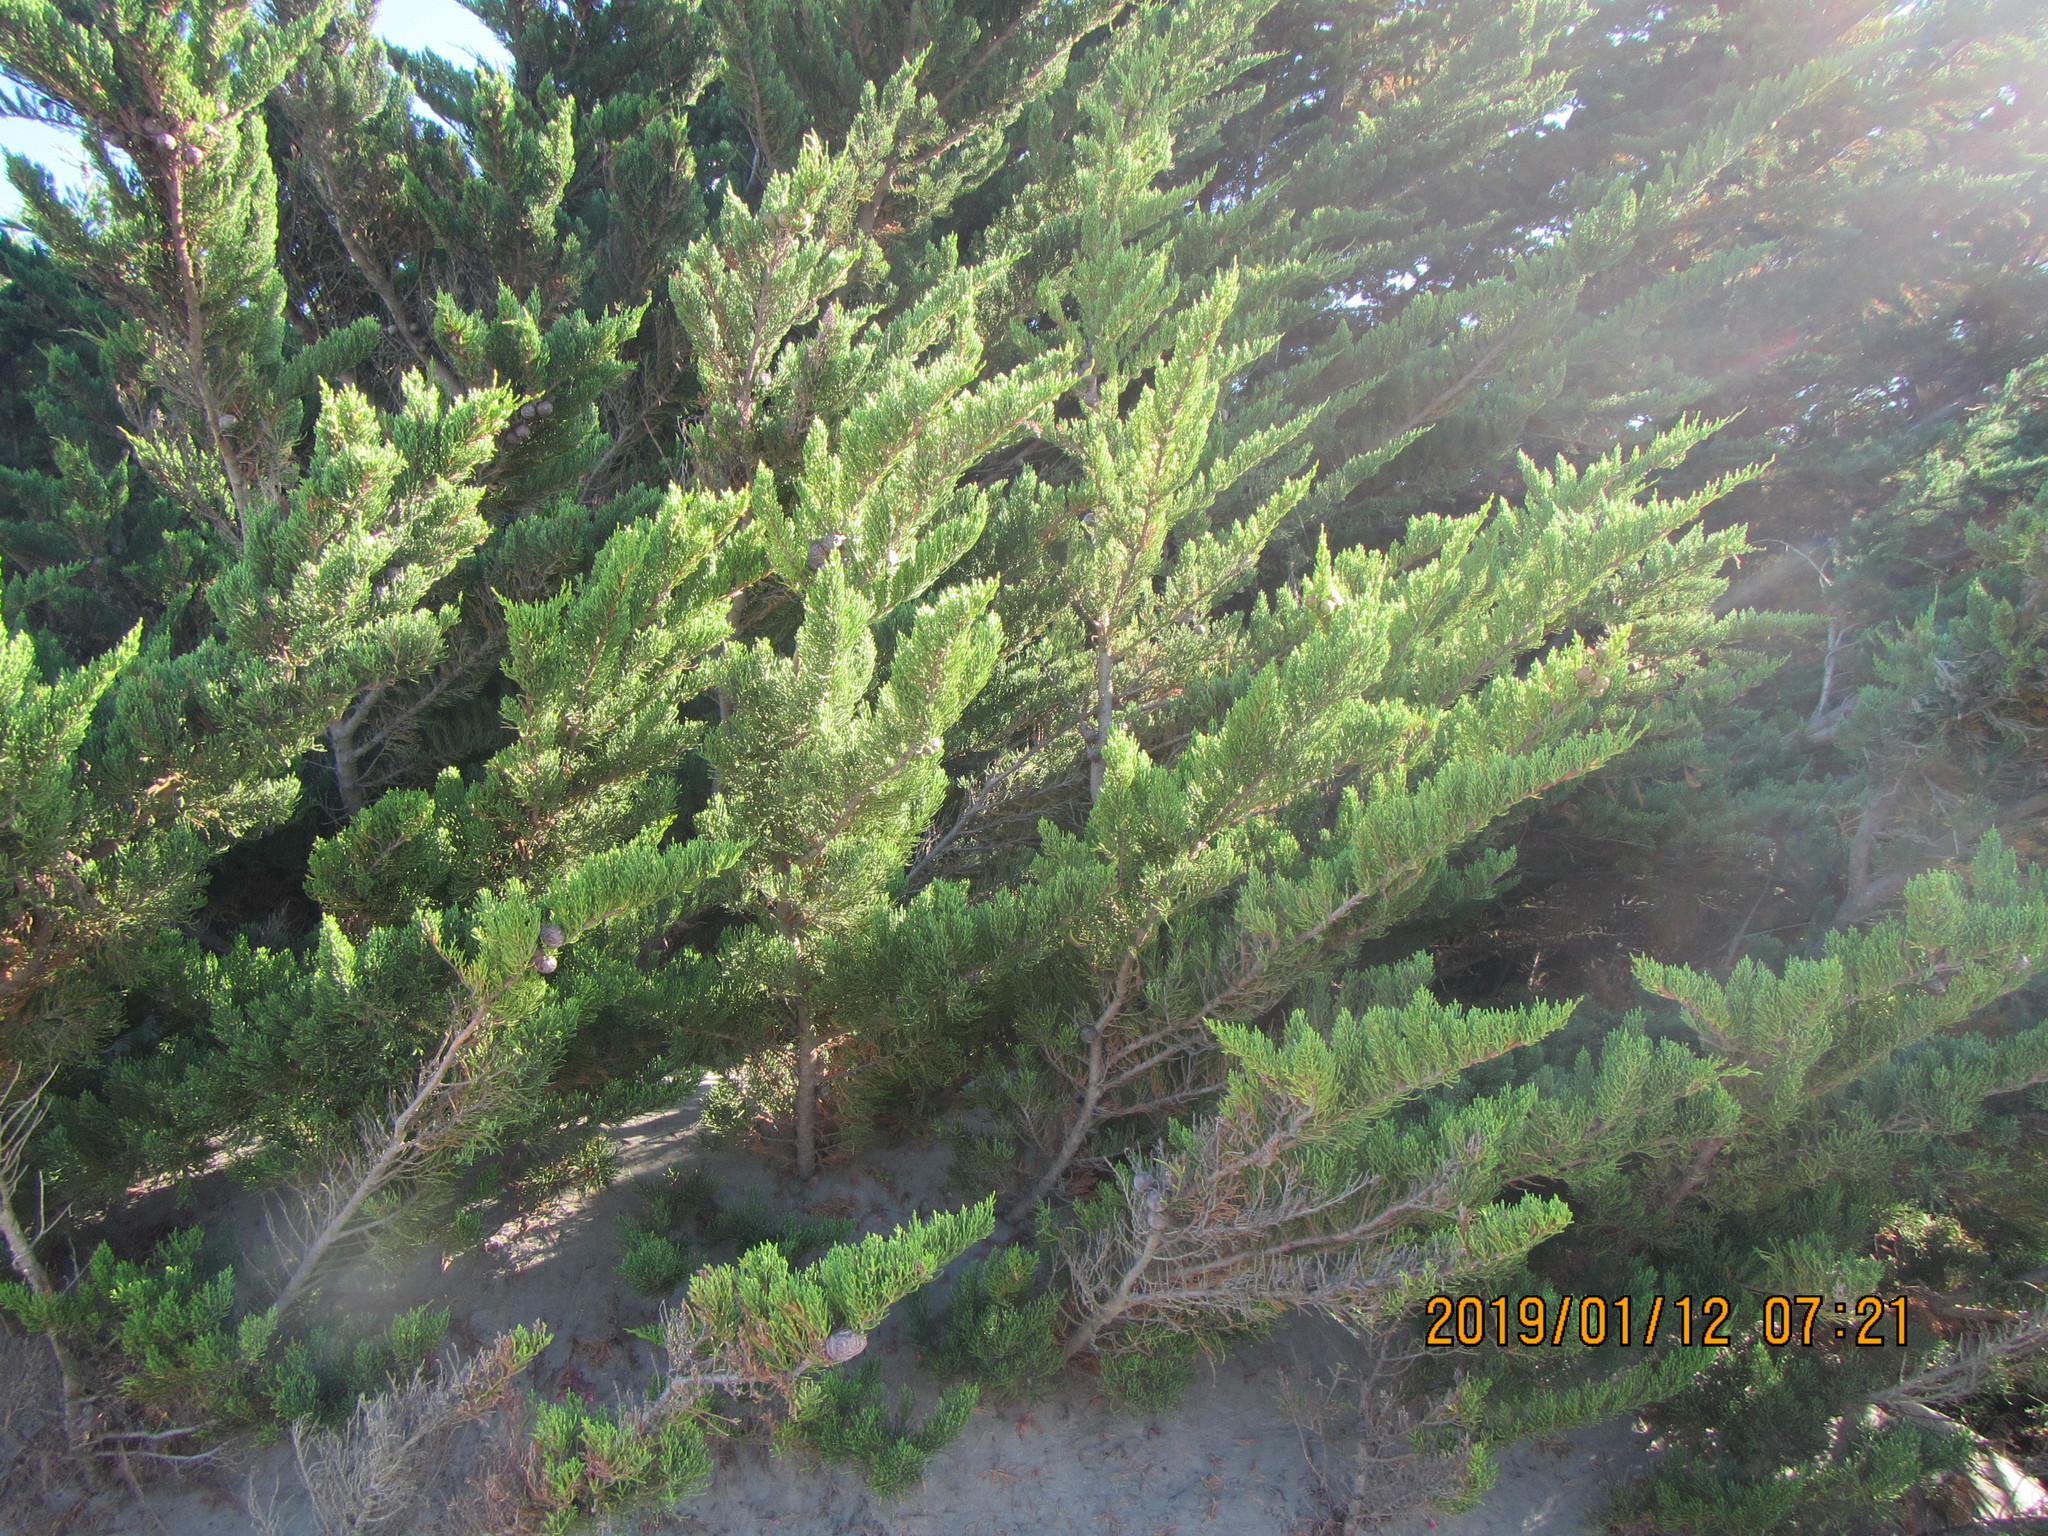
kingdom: Plantae
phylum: Tracheophyta
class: Pinopsida
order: Pinales
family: Cupressaceae
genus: Cupressus
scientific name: Cupressus macrocarpa
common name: Monterey cypress
